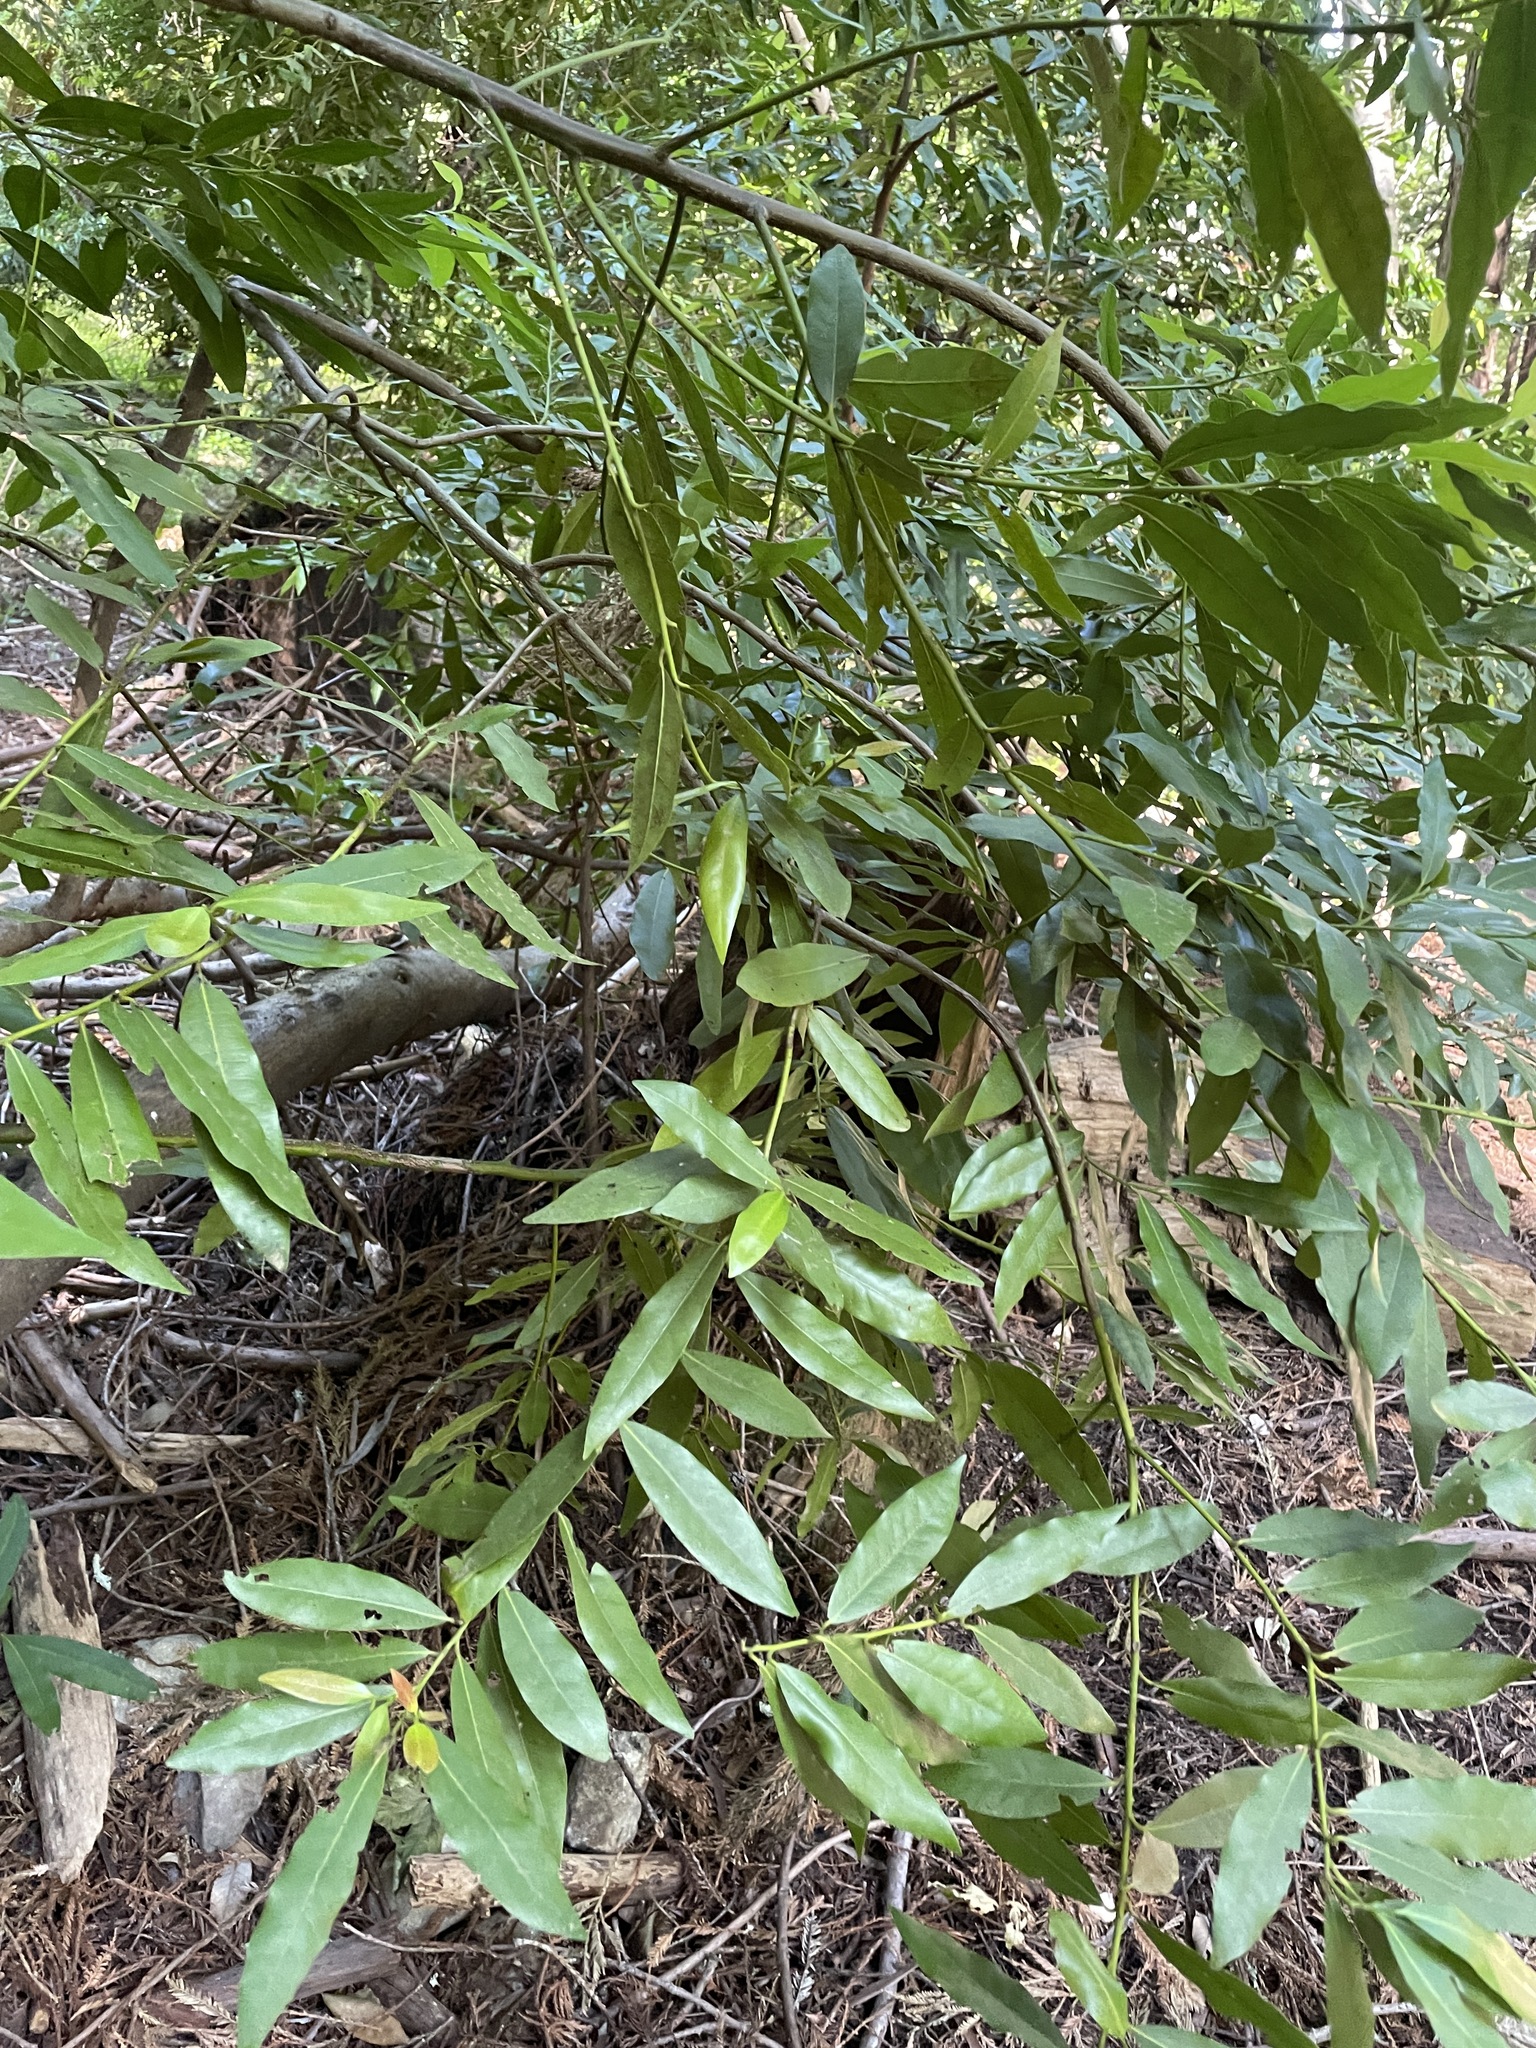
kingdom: Plantae
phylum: Tracheophyta
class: Magnoliopsida
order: Laurales
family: Lauraceae
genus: Umbellularia
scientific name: Umbellularia californica
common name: California bay
